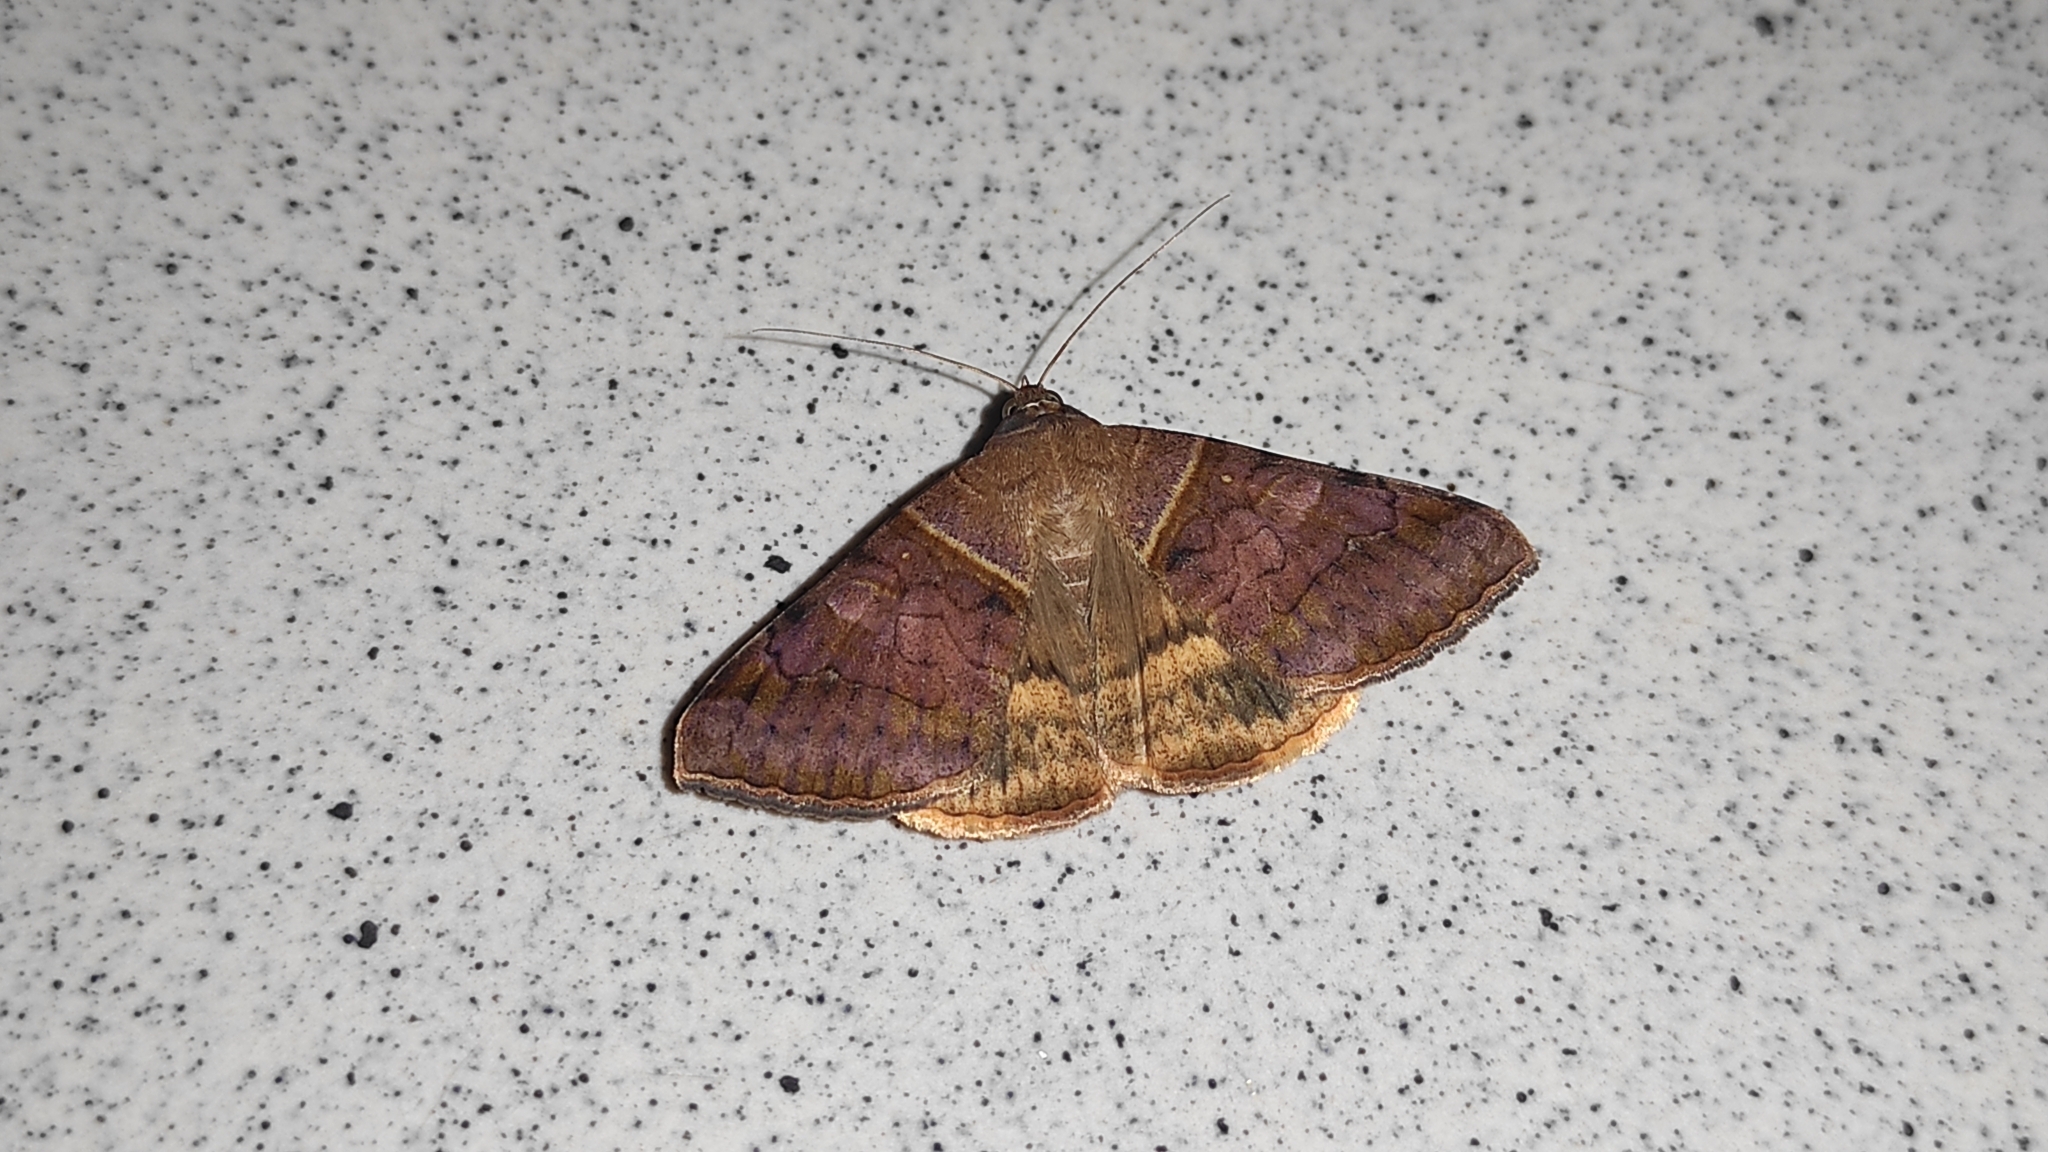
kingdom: Animalia
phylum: Arthropoda
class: Insecta
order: Lepidoptera
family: Erebidae
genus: Mocis
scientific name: Mocis undata
